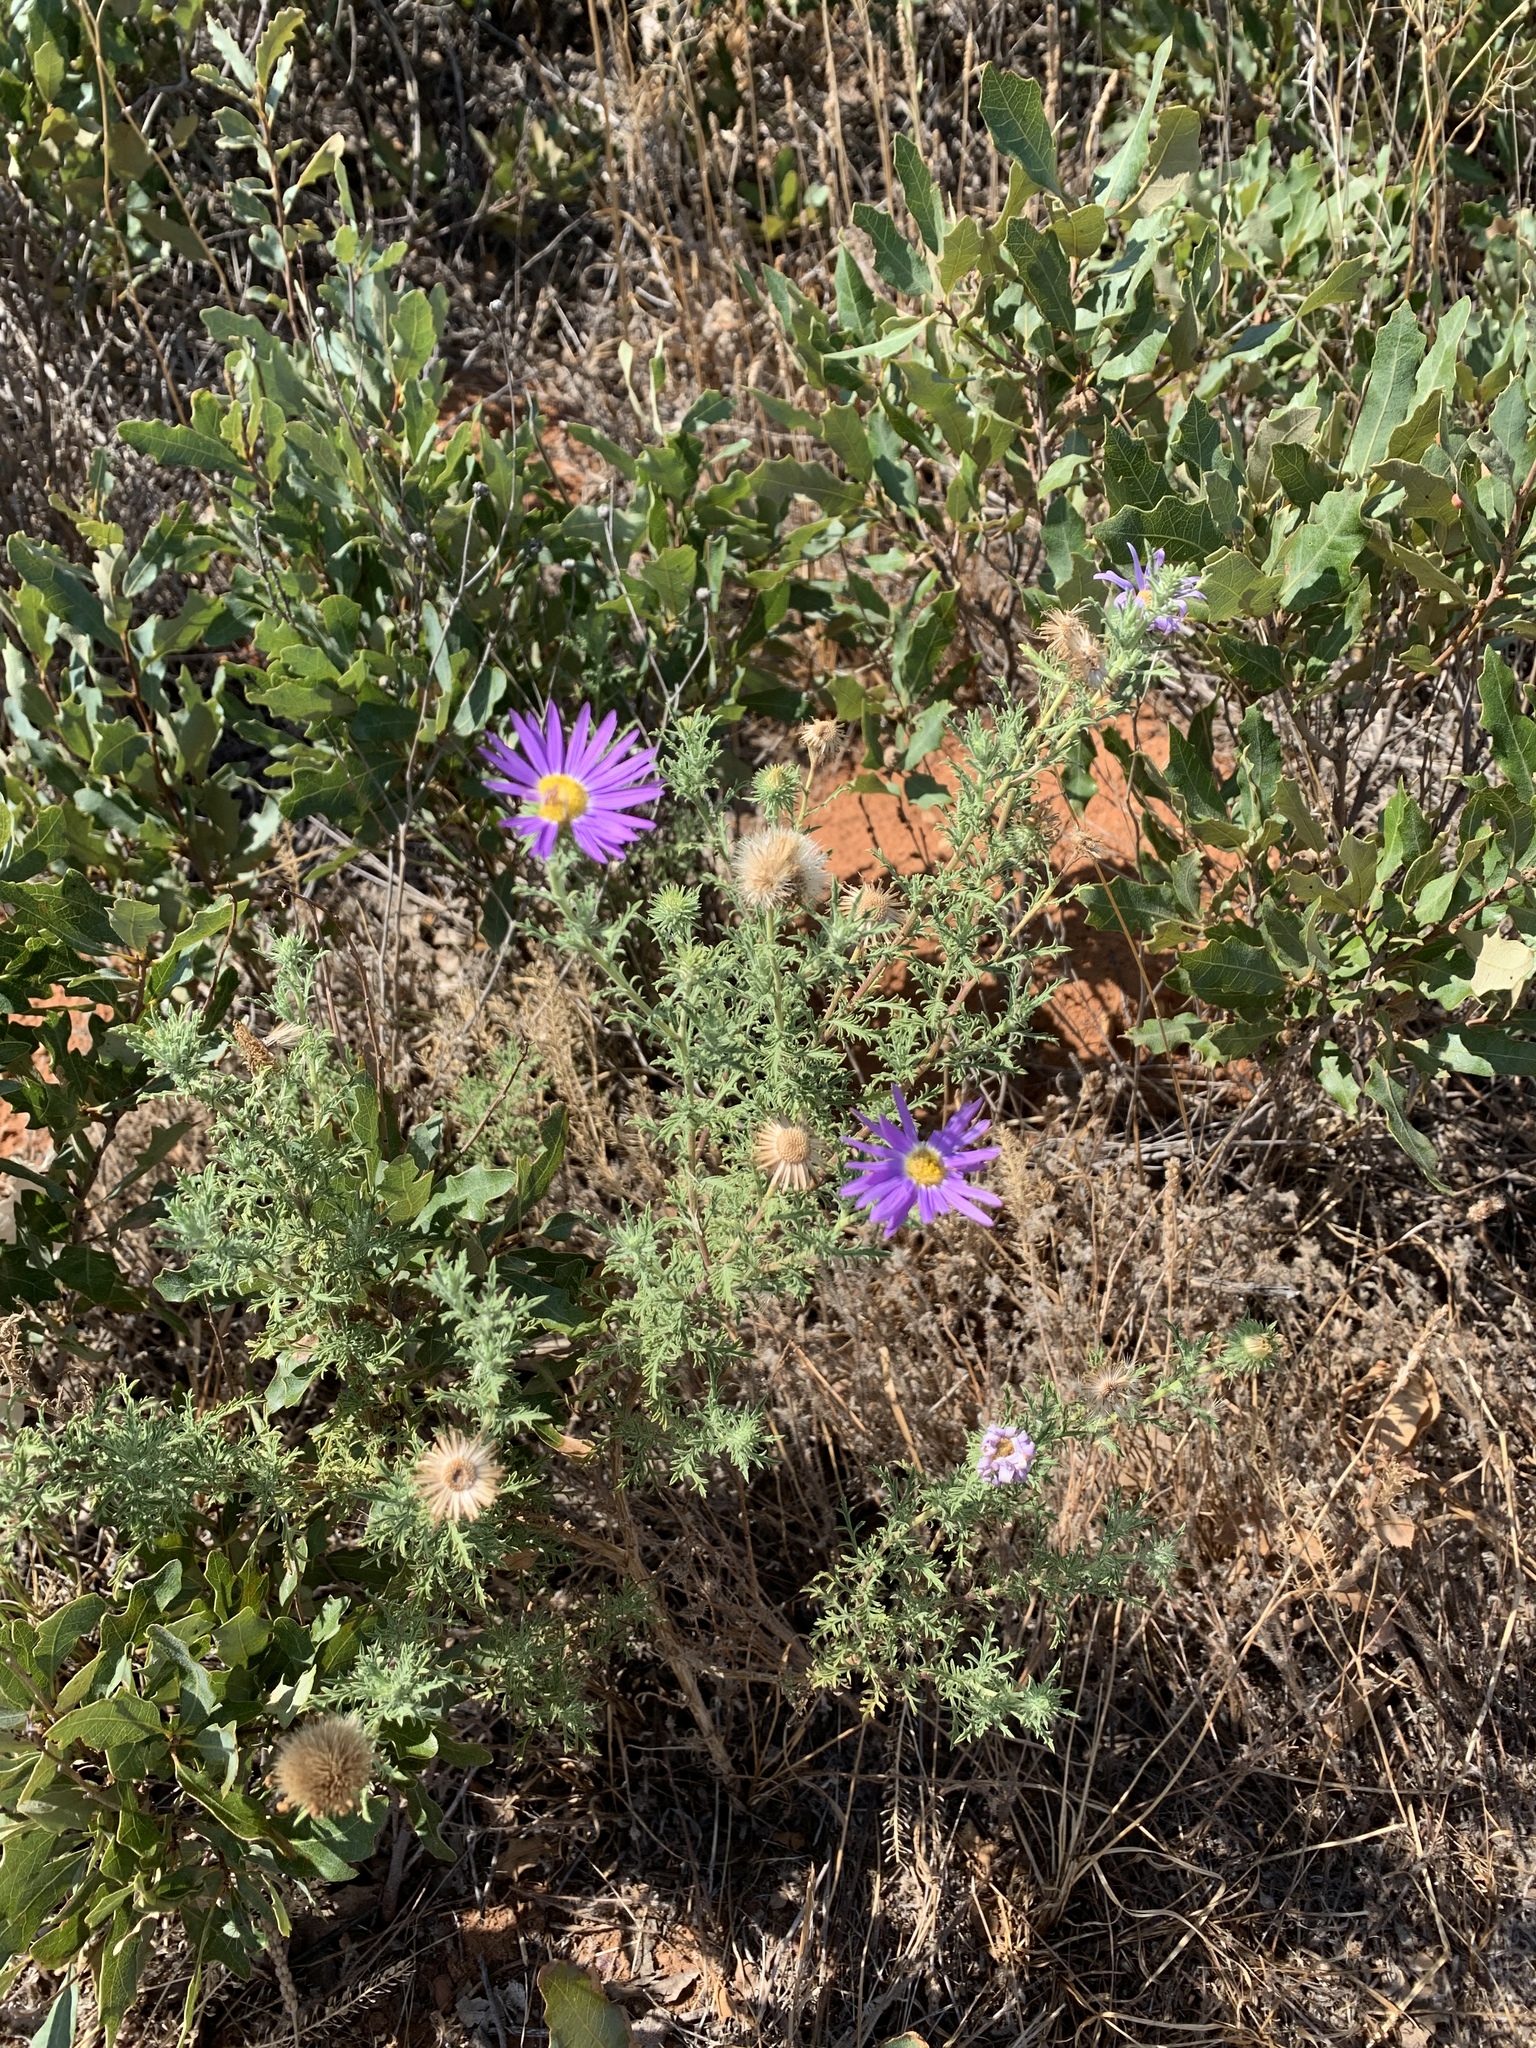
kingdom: Plantae
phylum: Tracheophyta
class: Magnoliopsida
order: Asterales
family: Asteraceae
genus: Machaeranthera
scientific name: Machaeranthera tanacetifolia
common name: Tansy-aster
